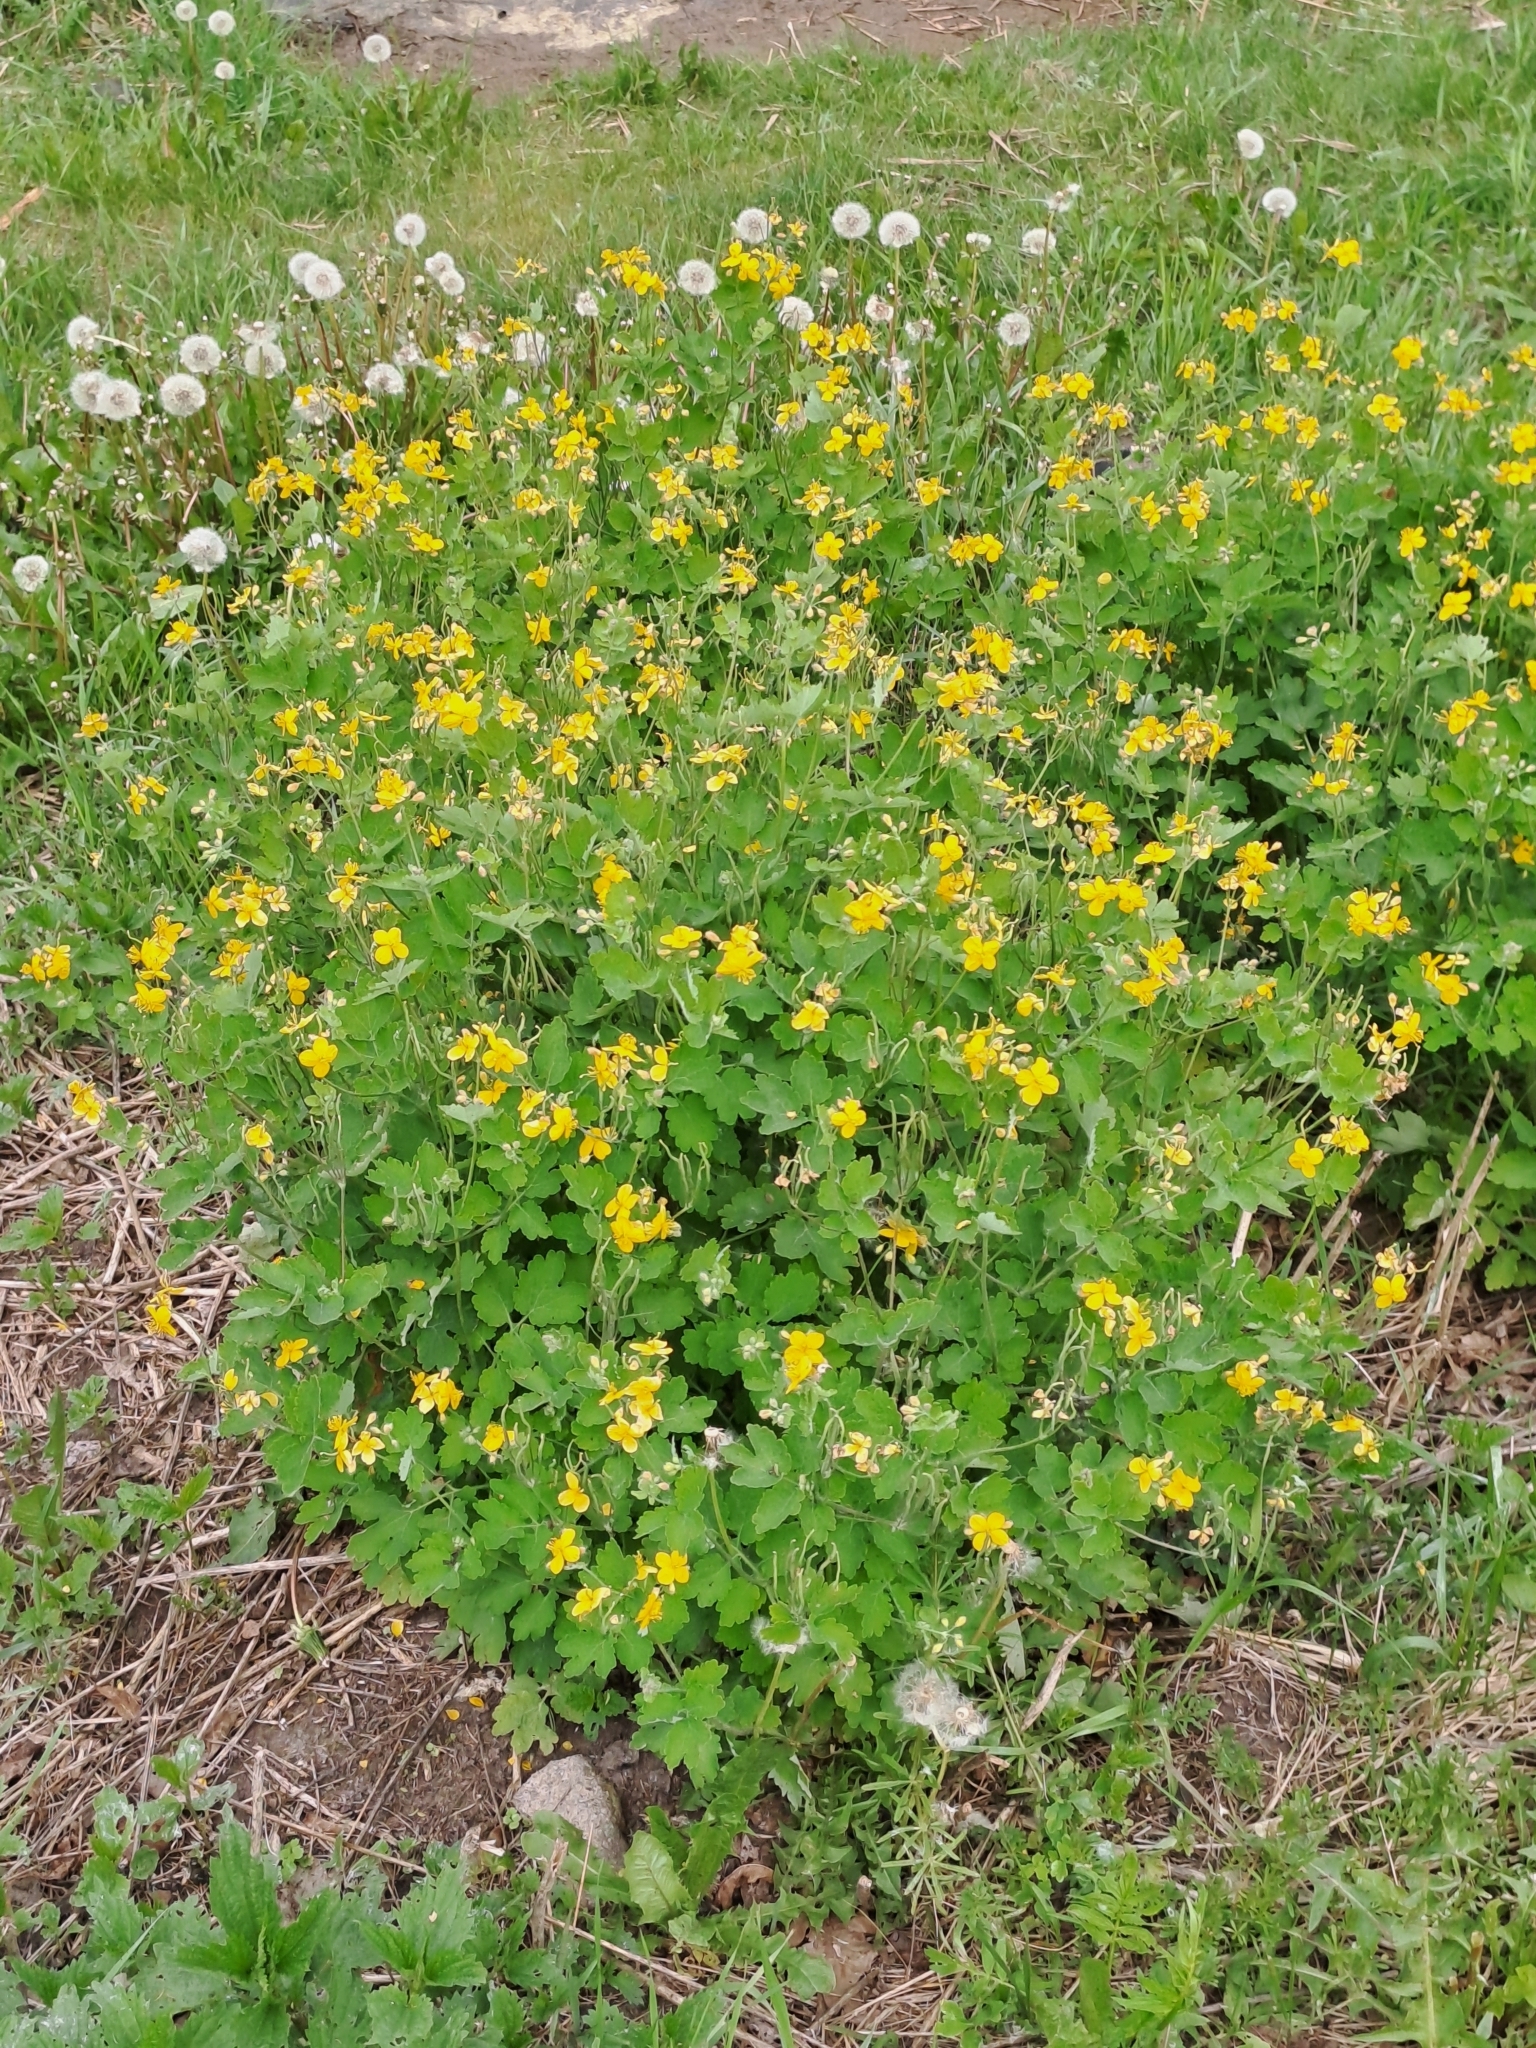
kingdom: Plantae
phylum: Tracheophyta
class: Magnoliopsida
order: Ranunculales
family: Papaveraceae
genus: Chelidonium
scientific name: Chelidonium majus
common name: Greater celandine
